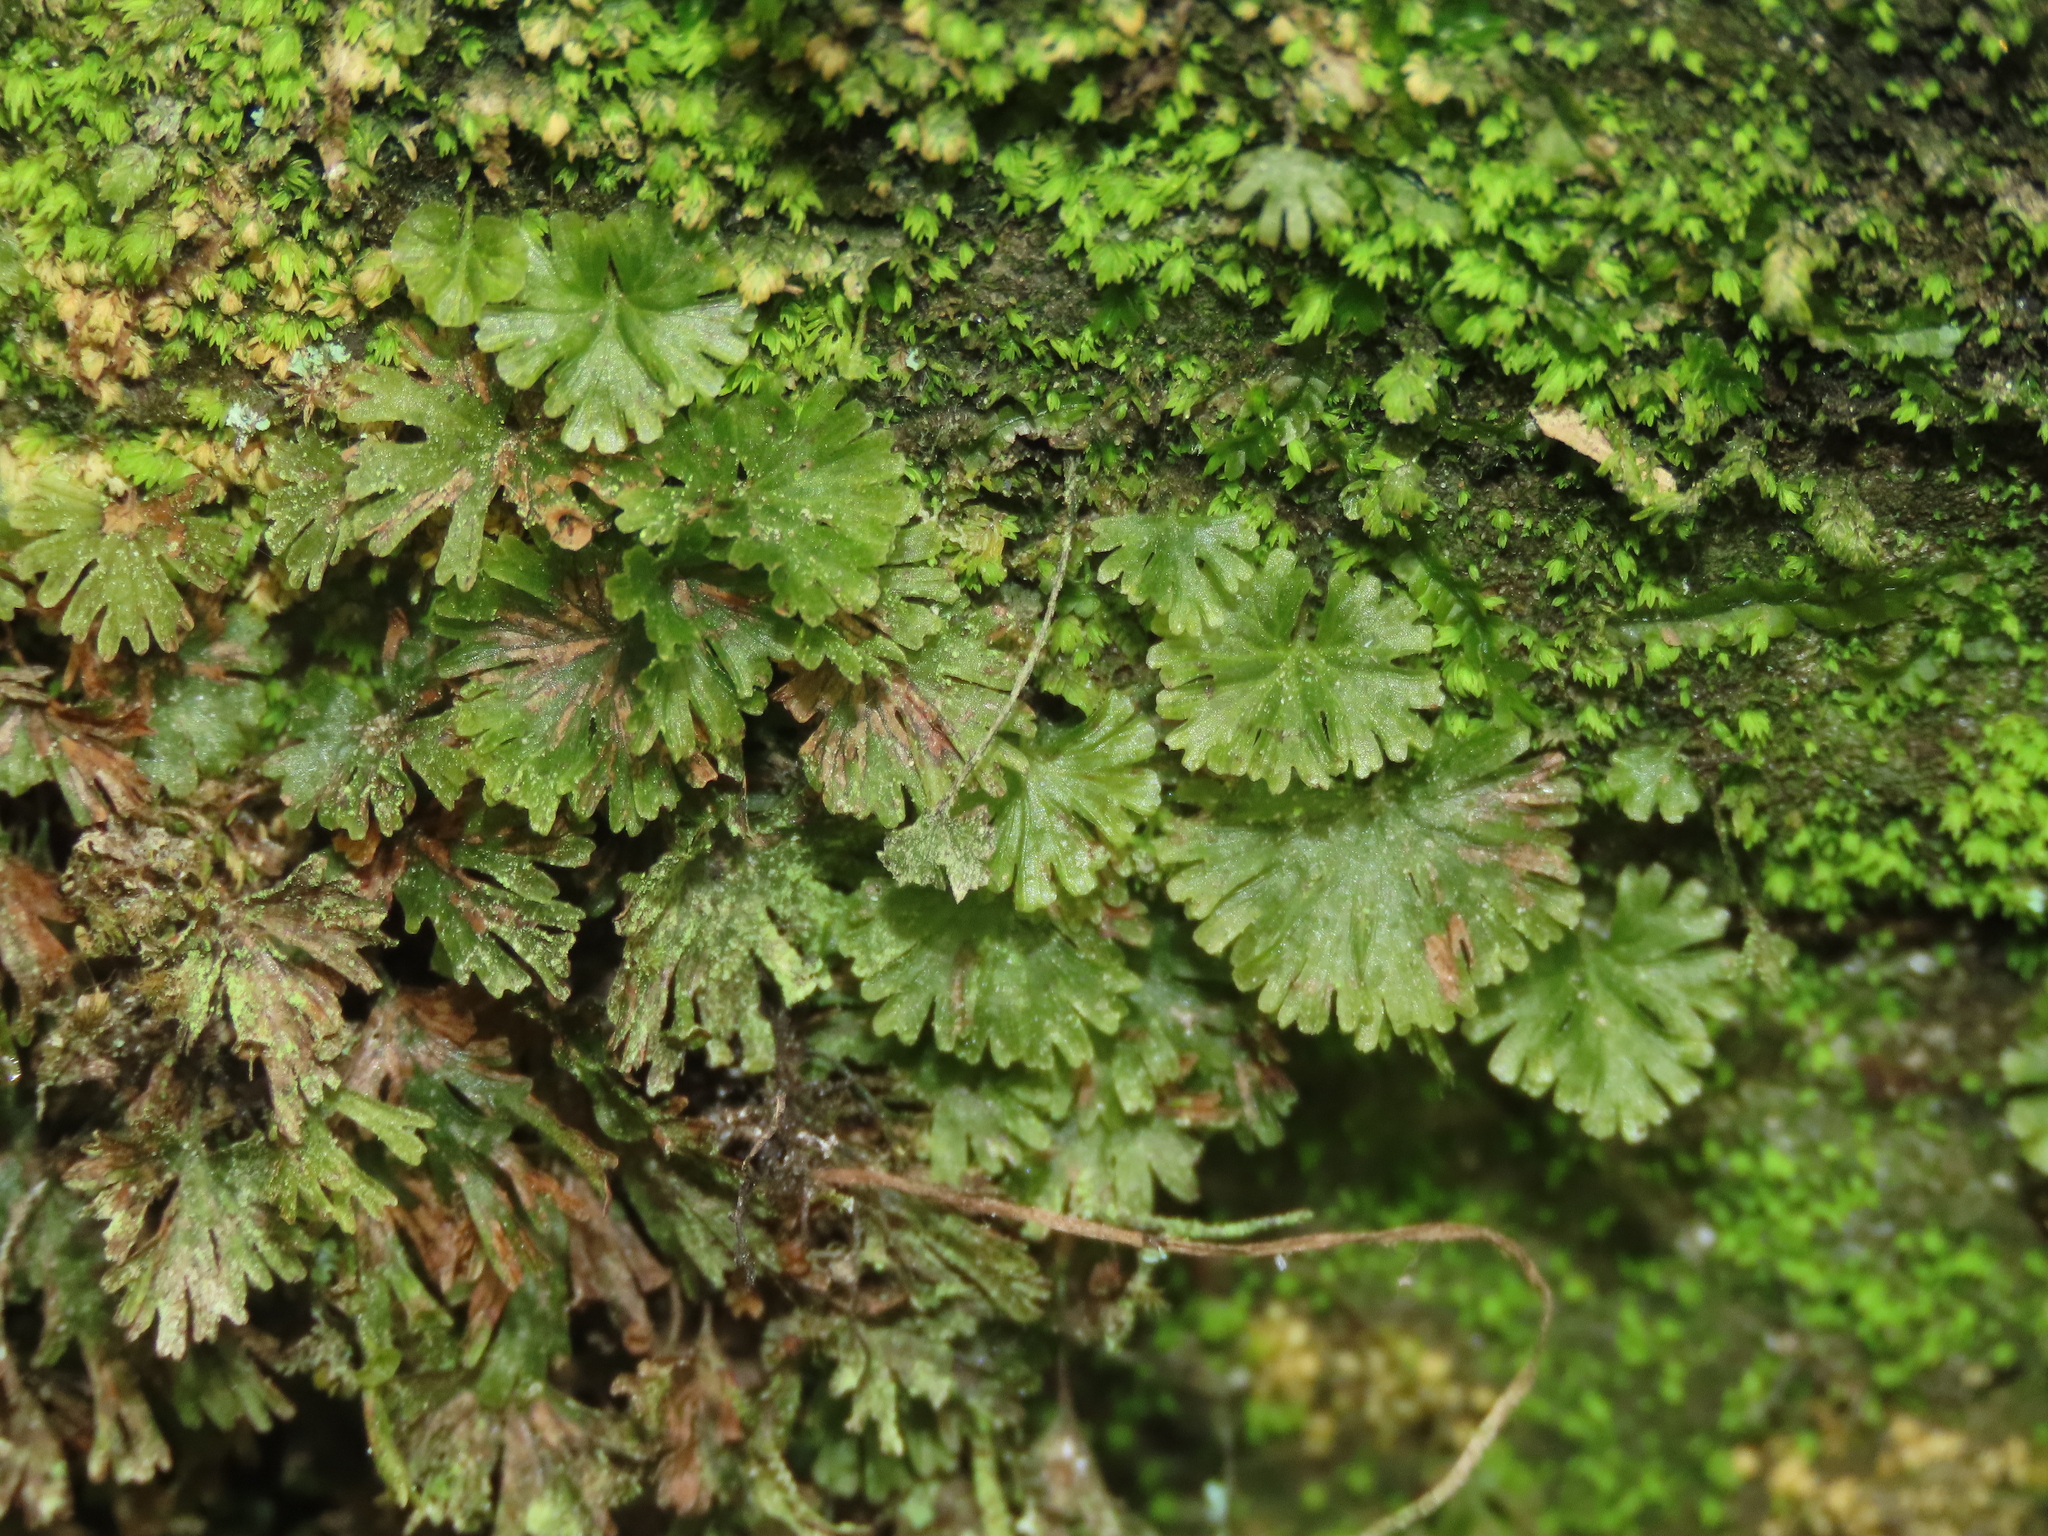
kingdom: Plantae
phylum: Tracheophyta
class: Polypodiopsida
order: Hymenophyllales
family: Hymenophyllaceae
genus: Crepidomanes
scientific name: Crepidomanes parvulum
